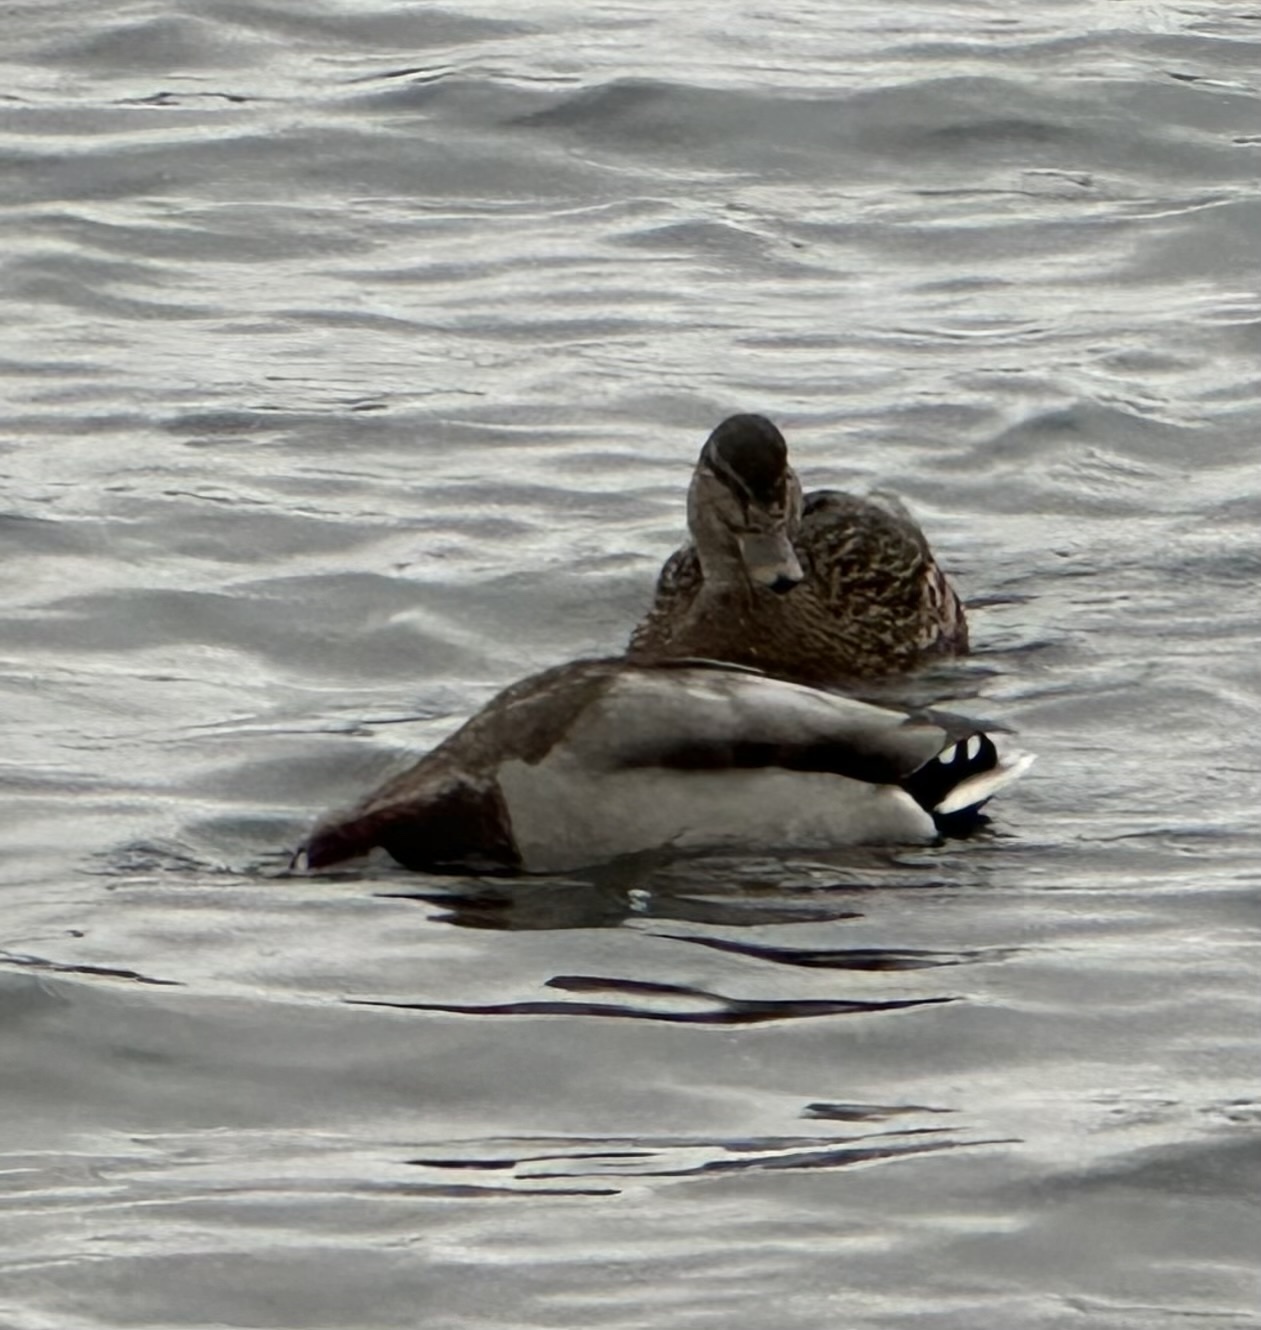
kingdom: Animalia
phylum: Chordata
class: Aves
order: Anseriformes
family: Anatidae
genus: Anas
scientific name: Anas platyrhynchos
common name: Mallard
